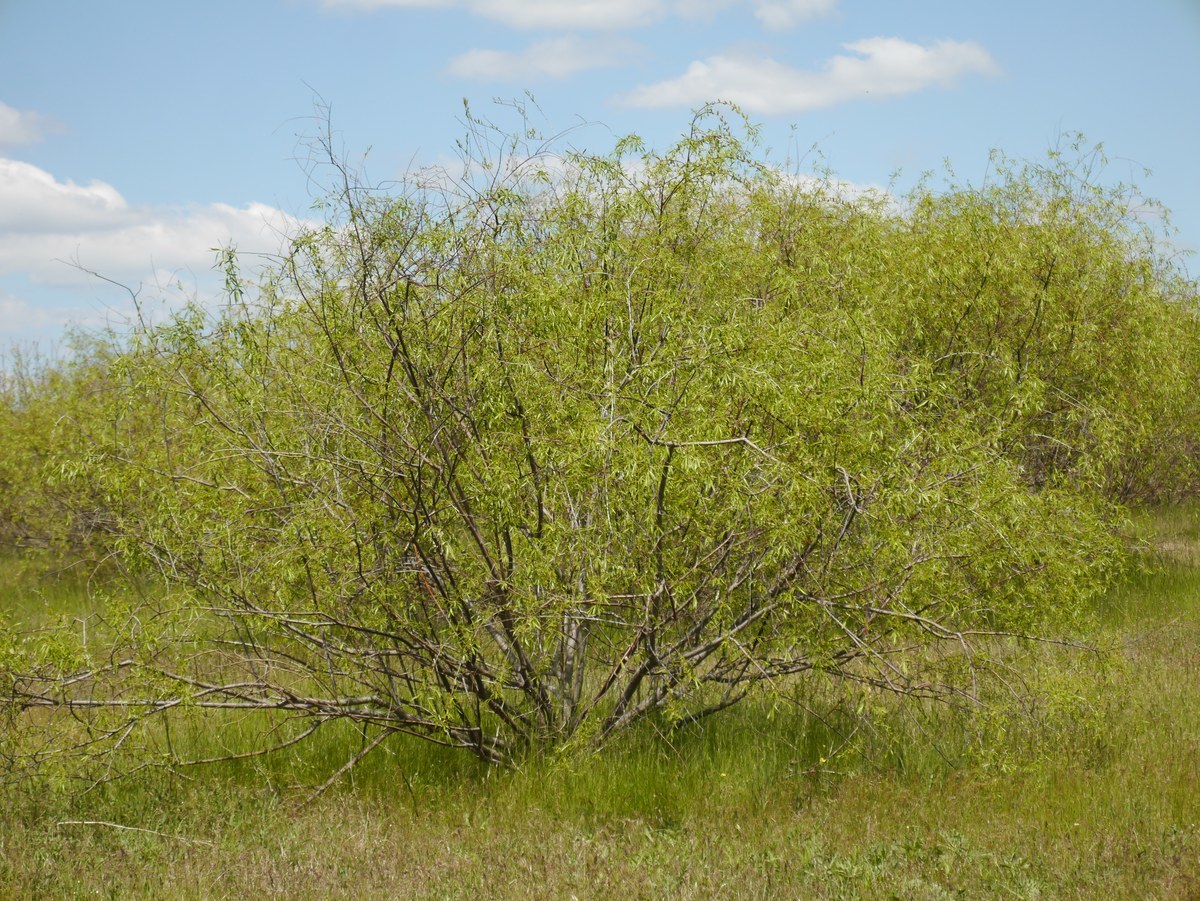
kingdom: Plantae
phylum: Tracheophyta
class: Magnoliopsida
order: Malpighiales
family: Salicaceae
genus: Salix
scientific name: Salix acutifolia
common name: Siberian violet-willow
